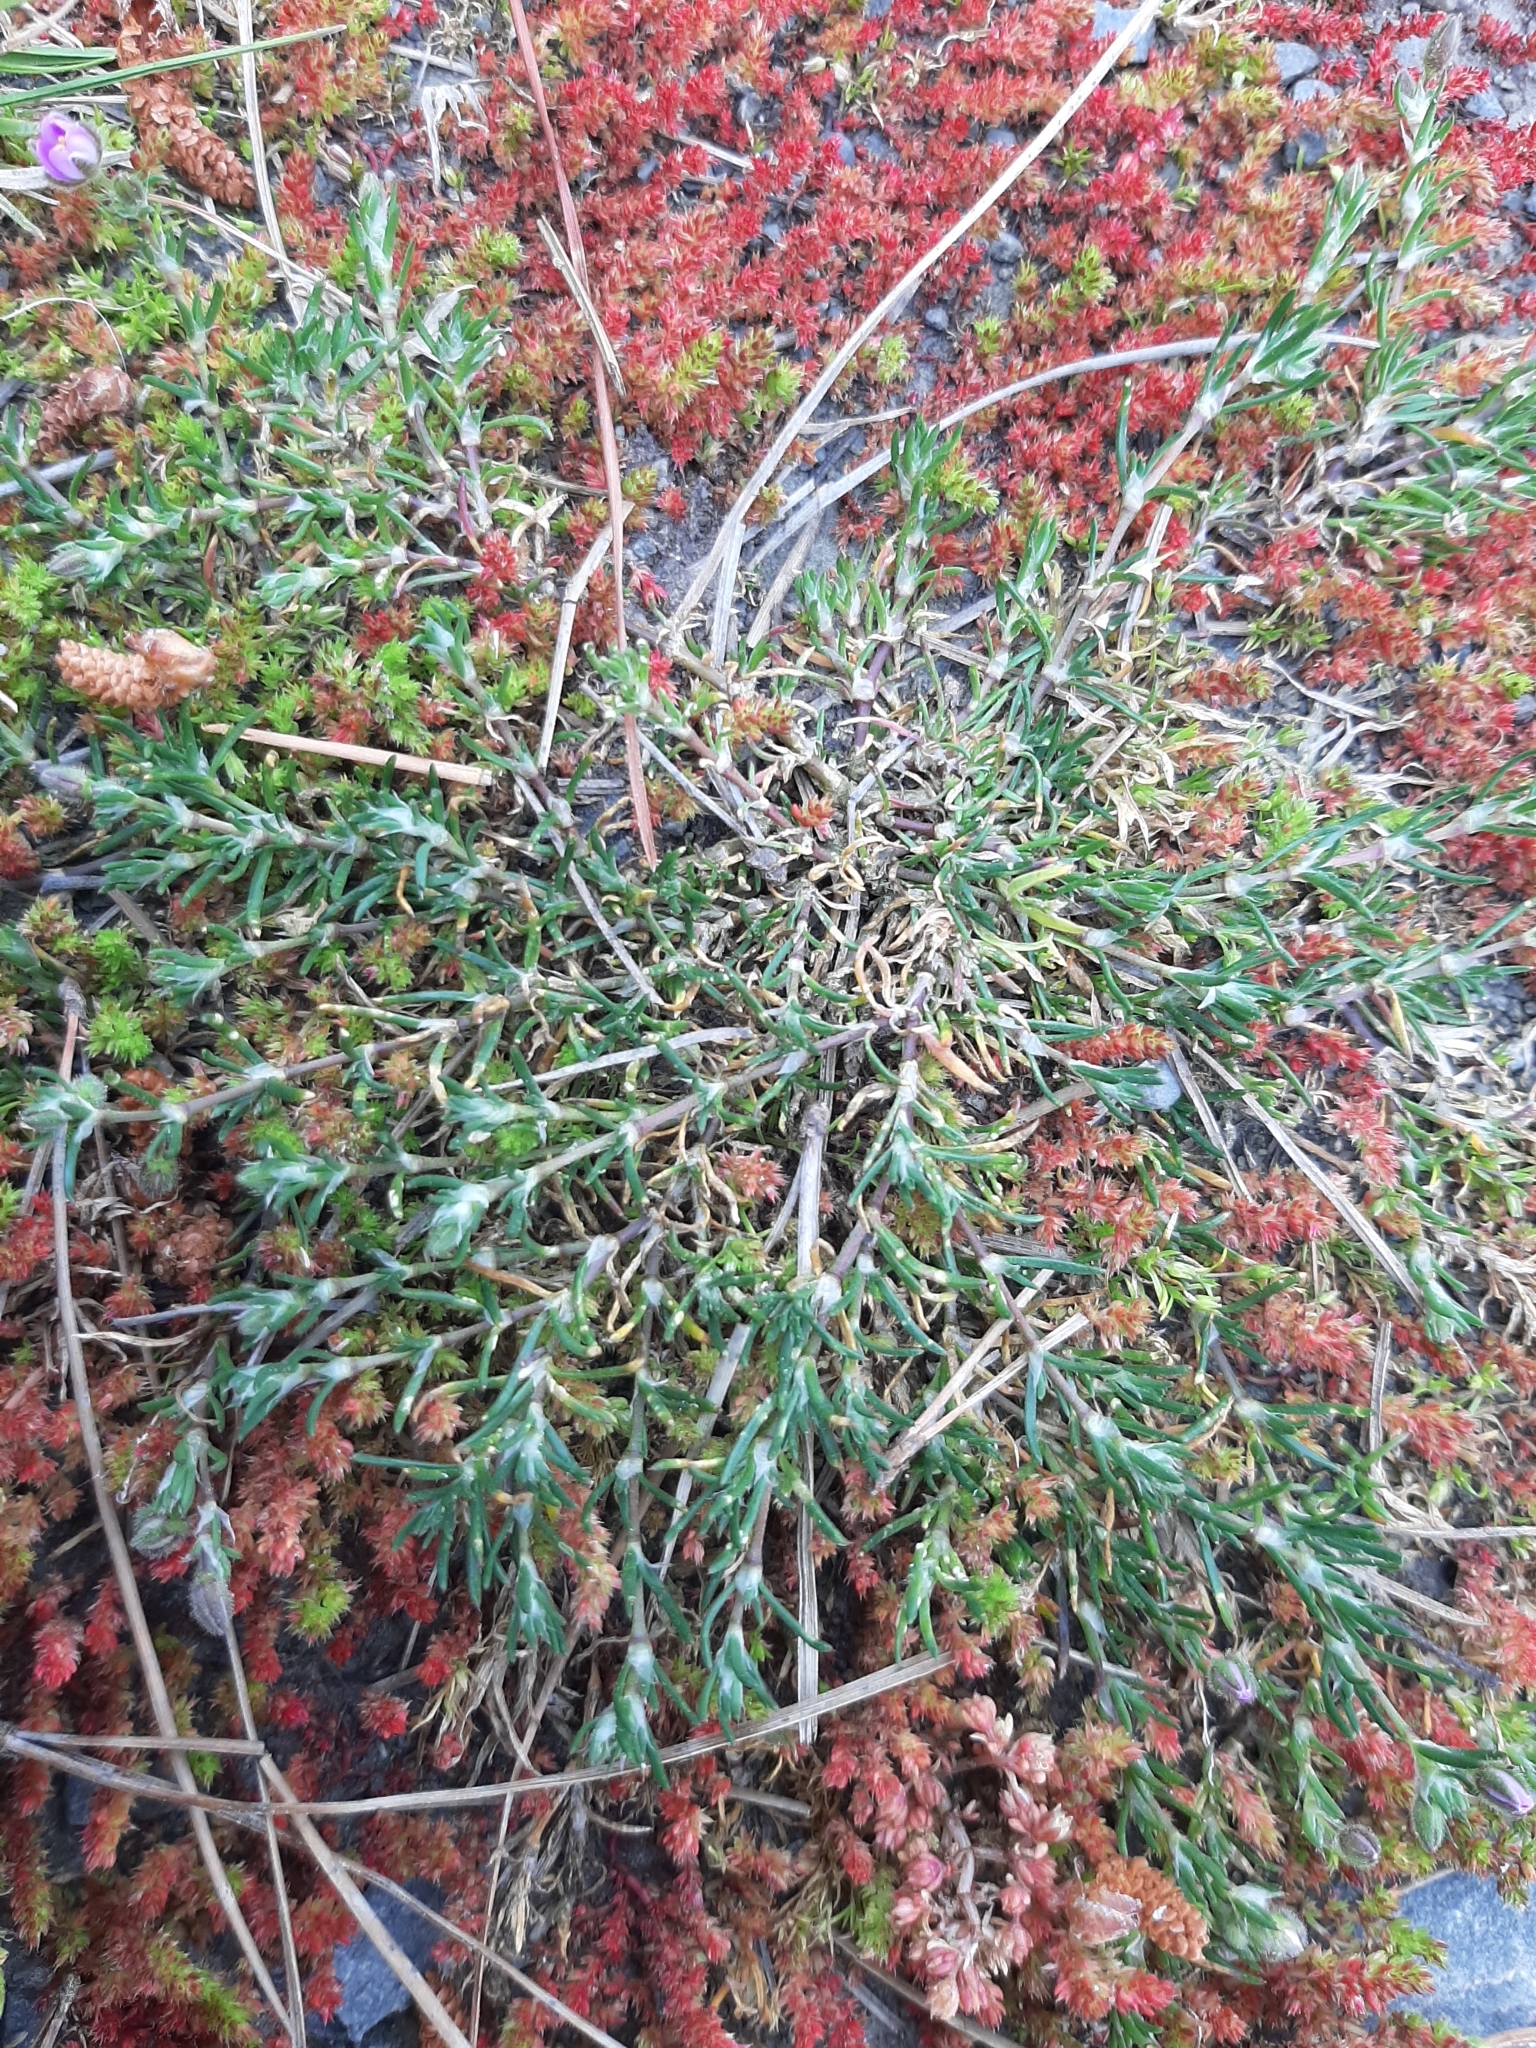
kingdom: Plantae
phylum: Tracheophyta
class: Magnoliopsida
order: Caryophyllales
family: Caryophyllaceae
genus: Spergularia
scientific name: Spergularia rubra
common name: Red sand-spurrey
